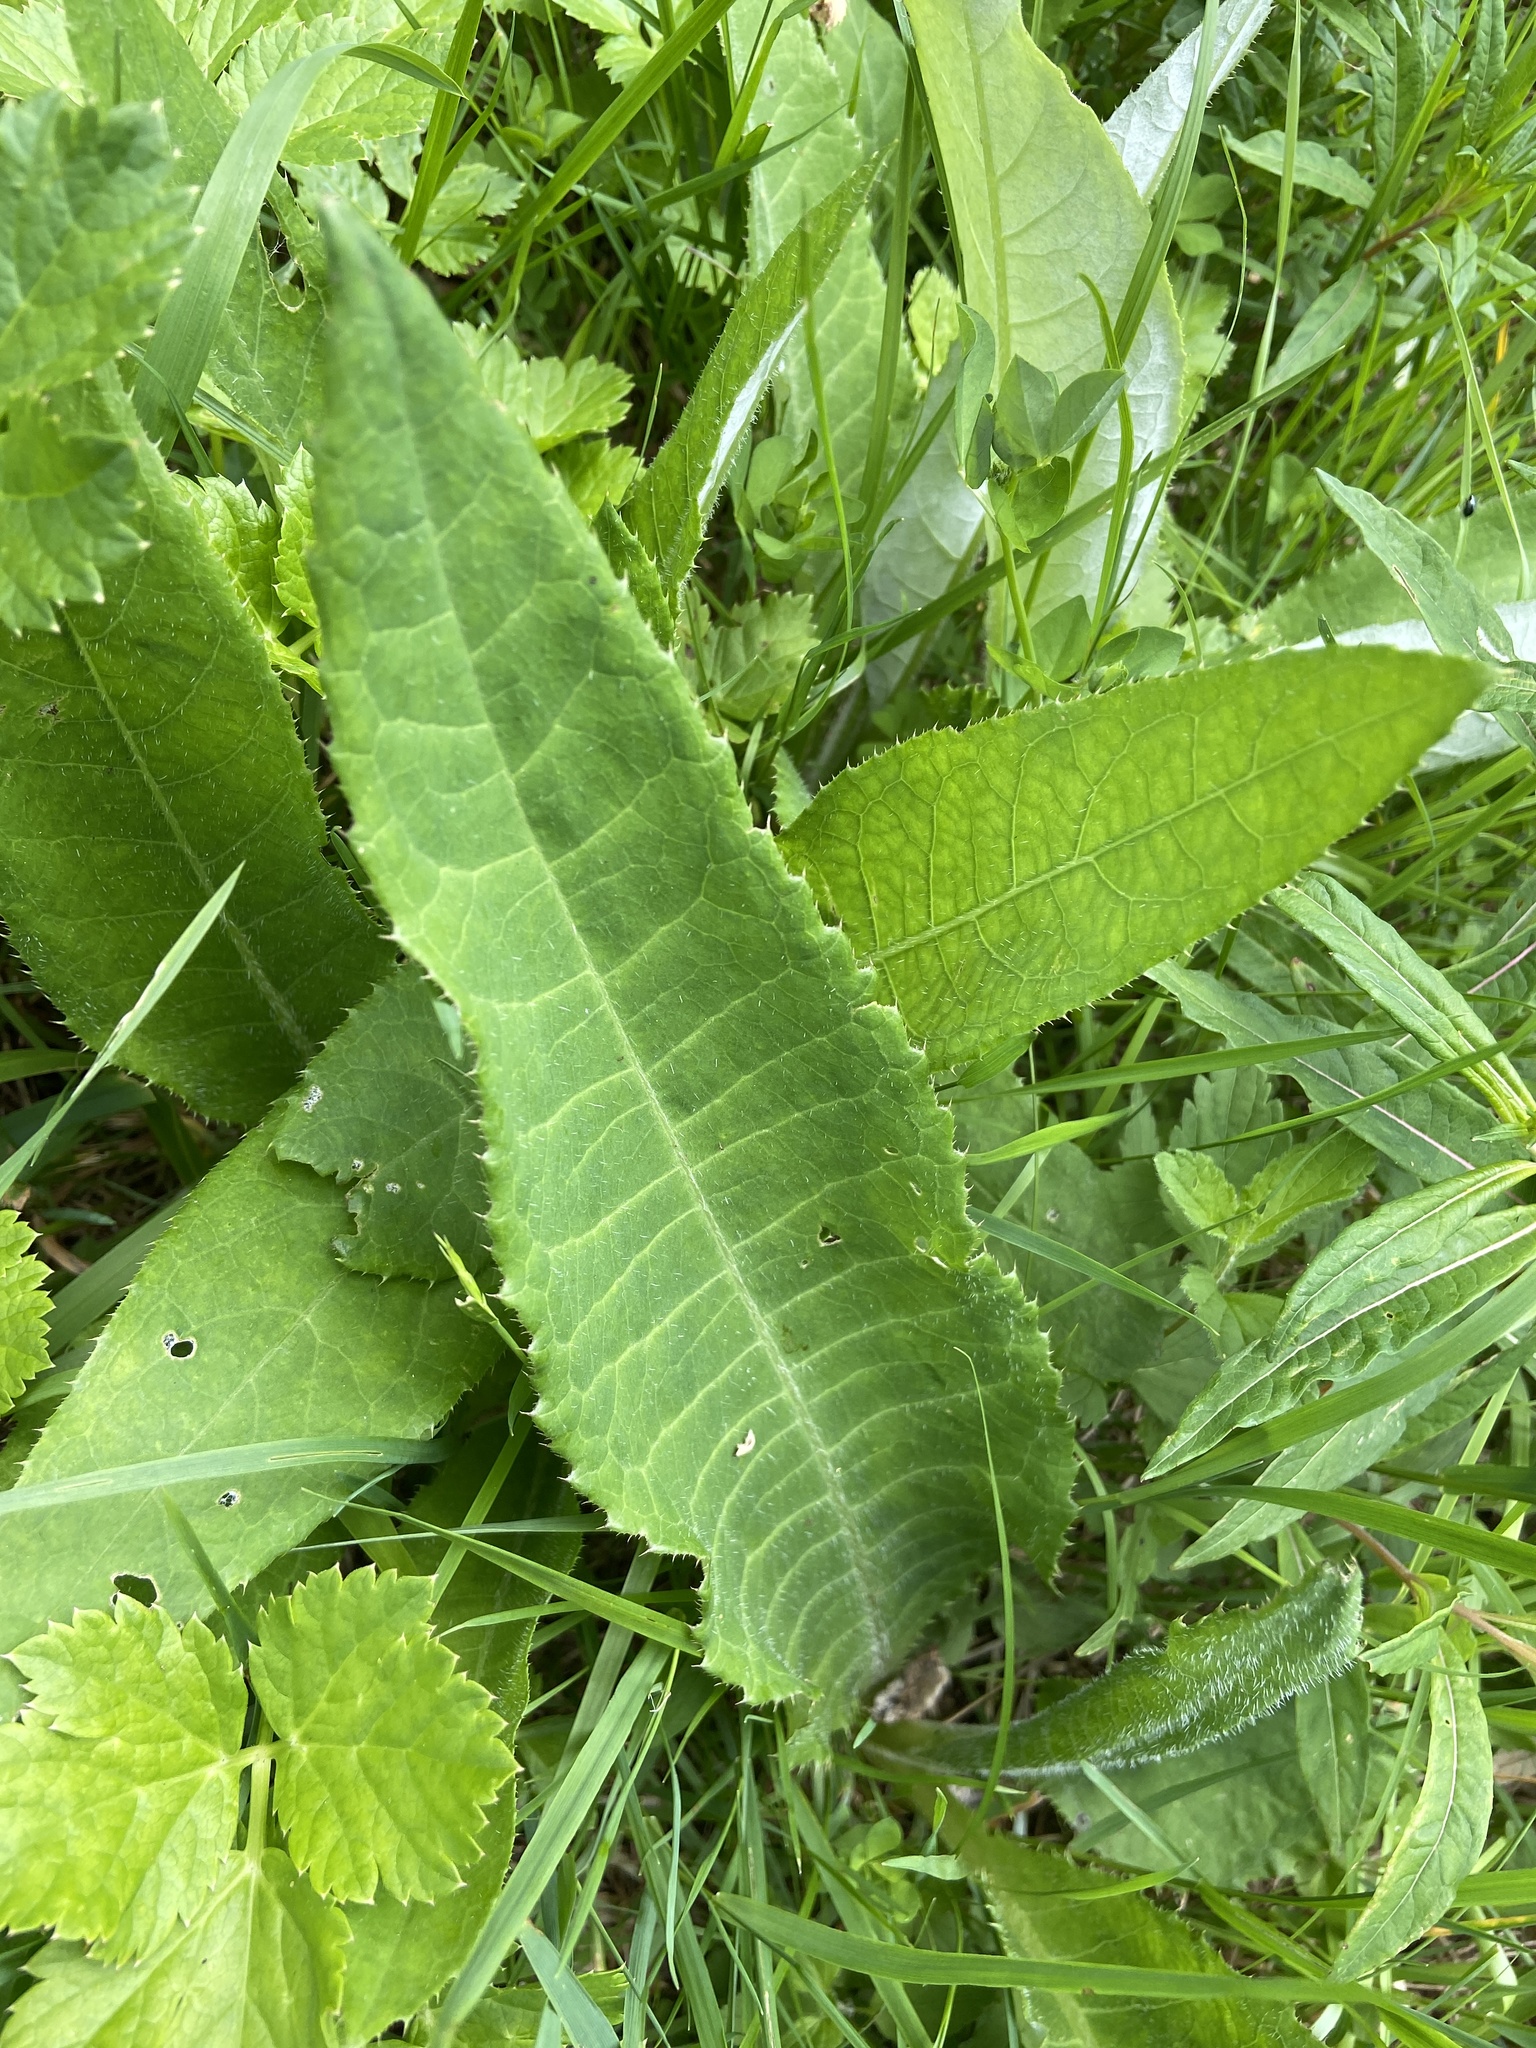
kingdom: Plantae
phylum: Tracheophyta
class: Magnoliopsida
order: Asterales
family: Asteraceae
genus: Cirsium
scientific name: Cirsium heterophyllum
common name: Melancholy thistle
